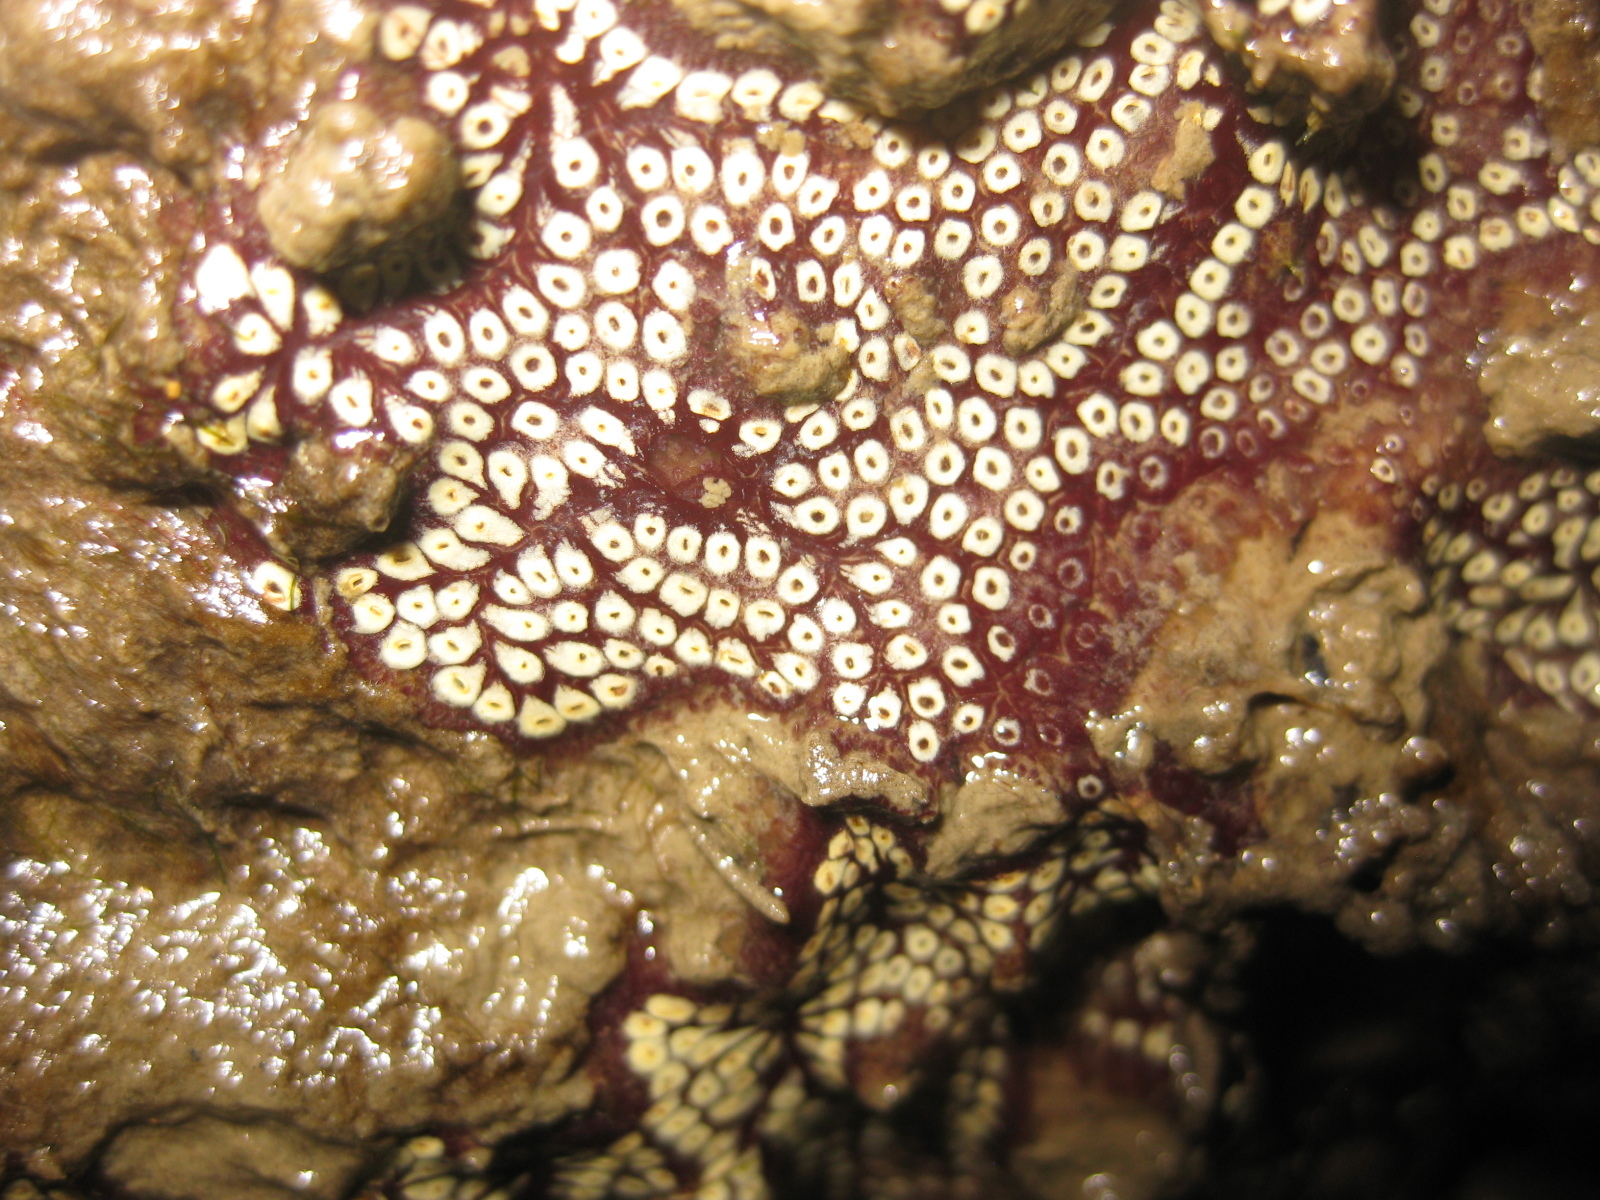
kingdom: Animalia
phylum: Chordata
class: Ascidiacea
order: Stolidobranchia
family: Styelidae
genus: Botrylloides
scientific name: Botrylloides diegensis
